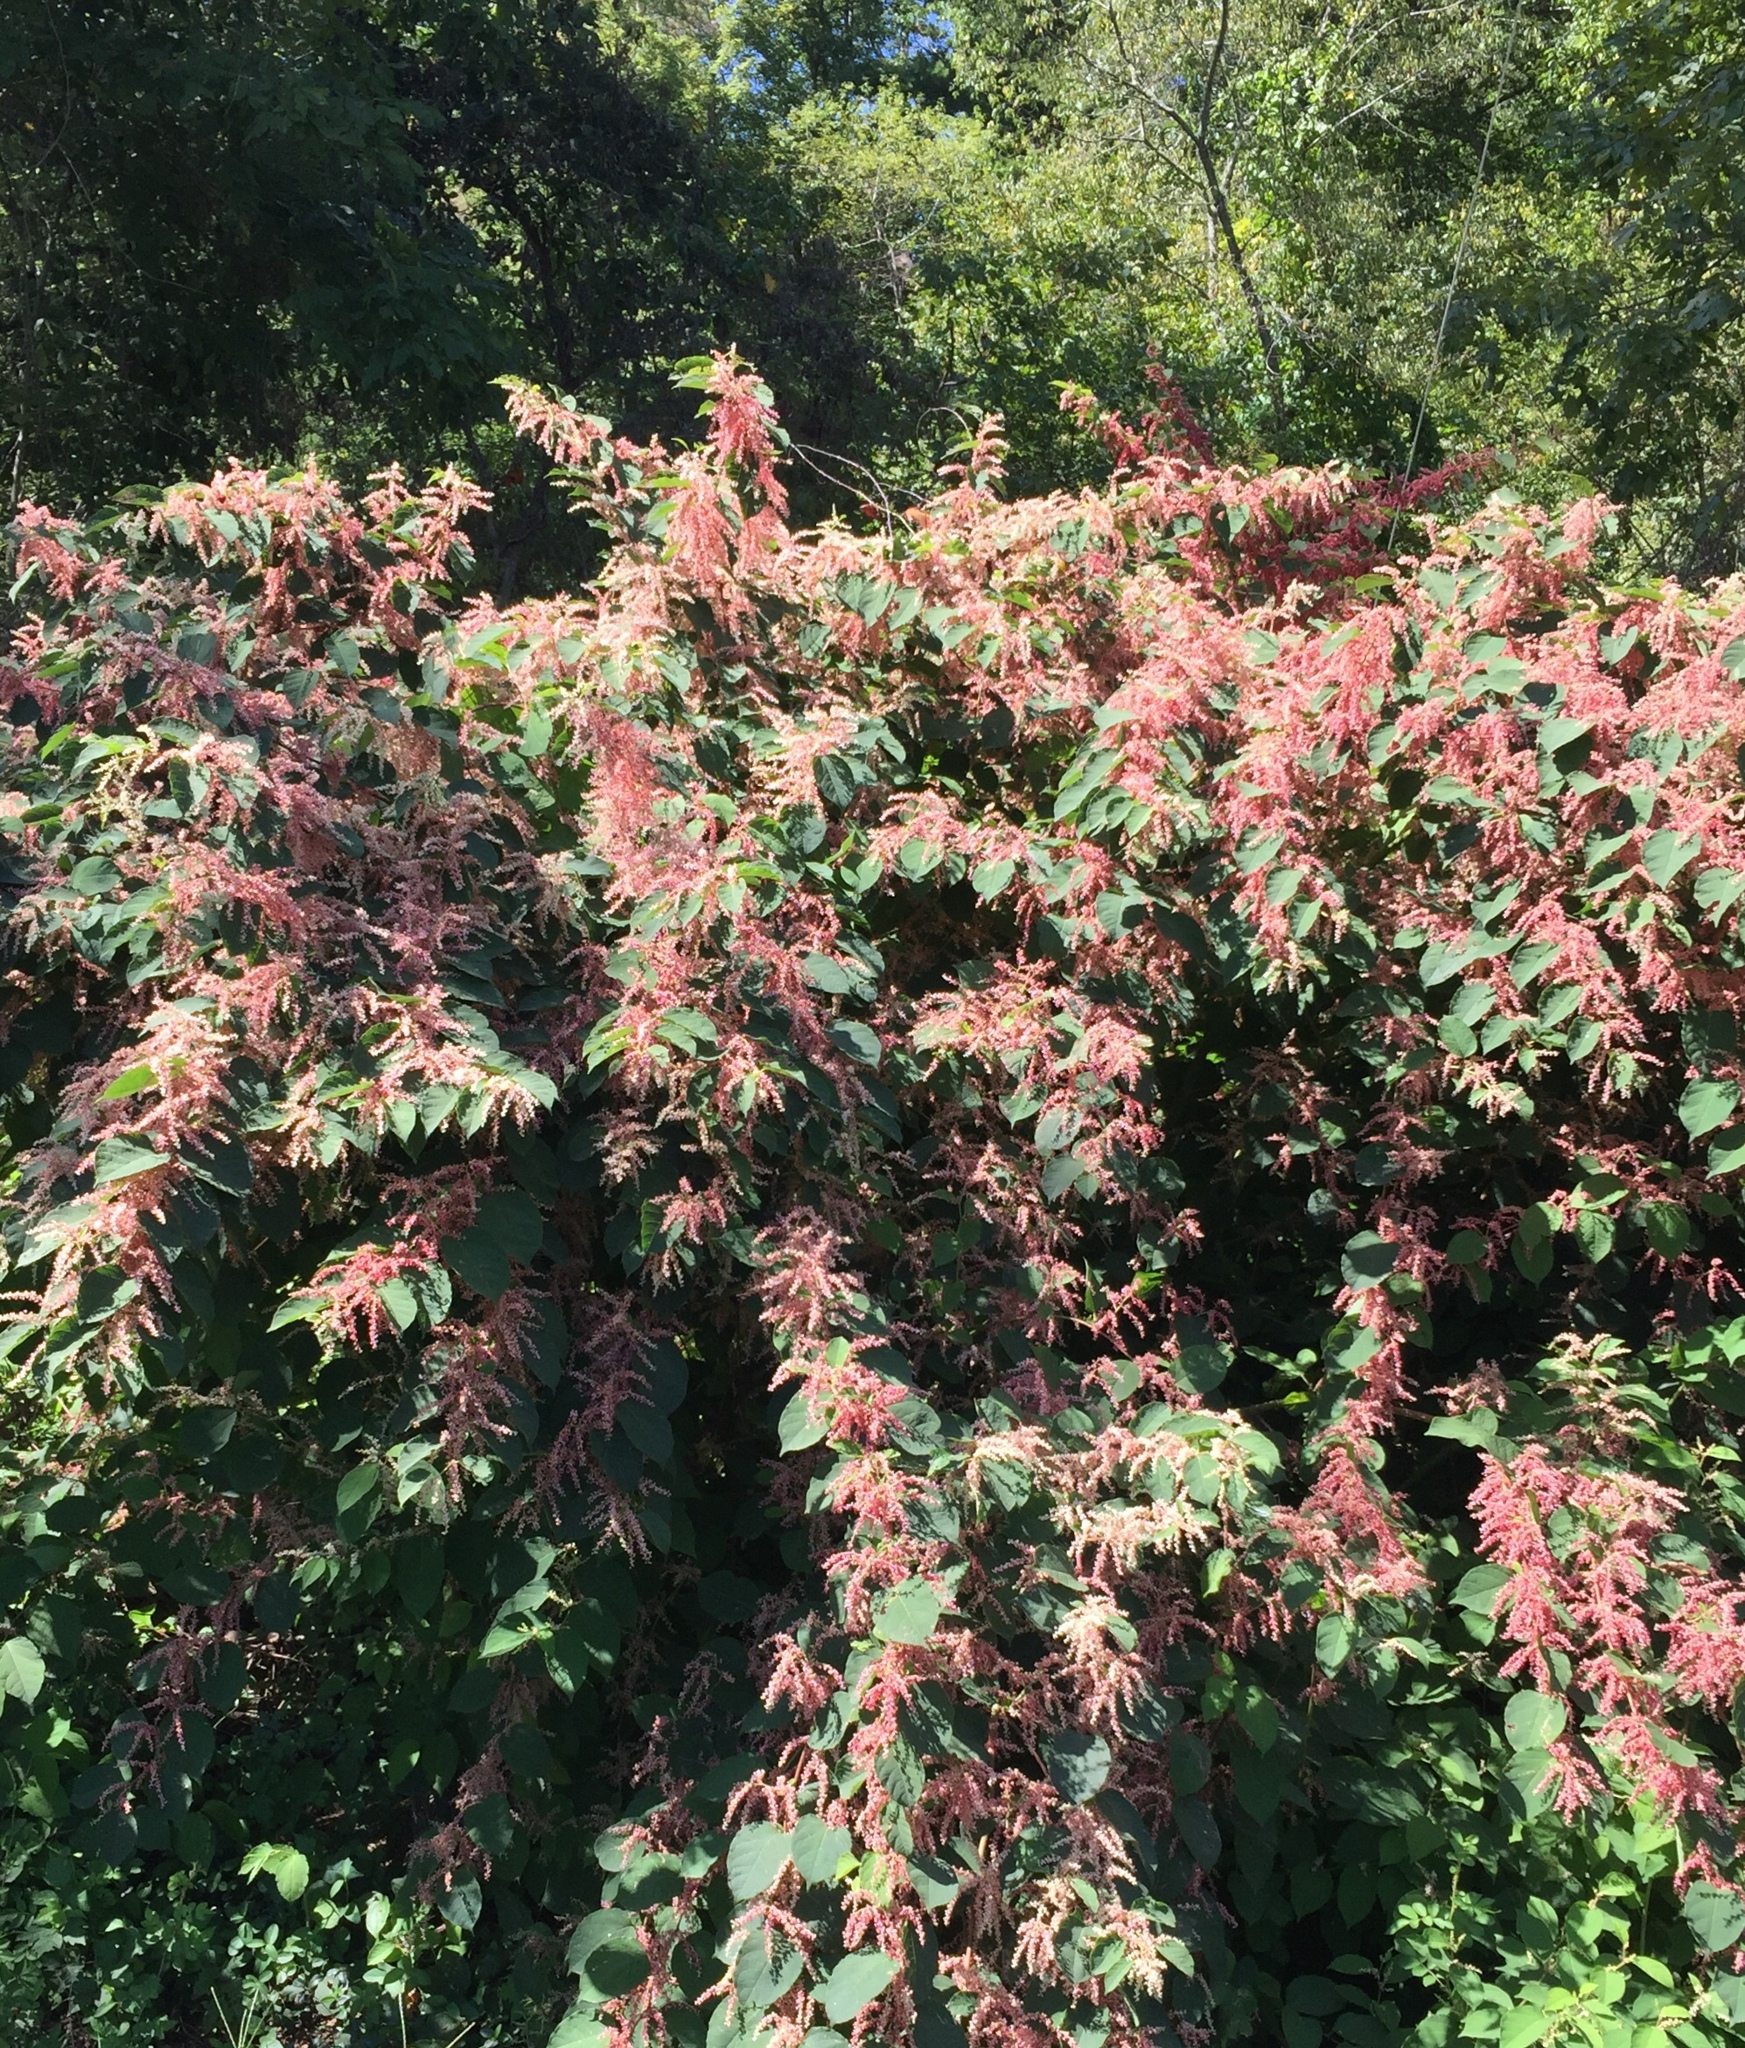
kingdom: Plantae
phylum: Tracheophyta
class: Magnoliopsida
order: Caryophyllales
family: Polygonaceae
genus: Reynoutria
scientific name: Reynoutria japonica
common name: Japanese knotweed
